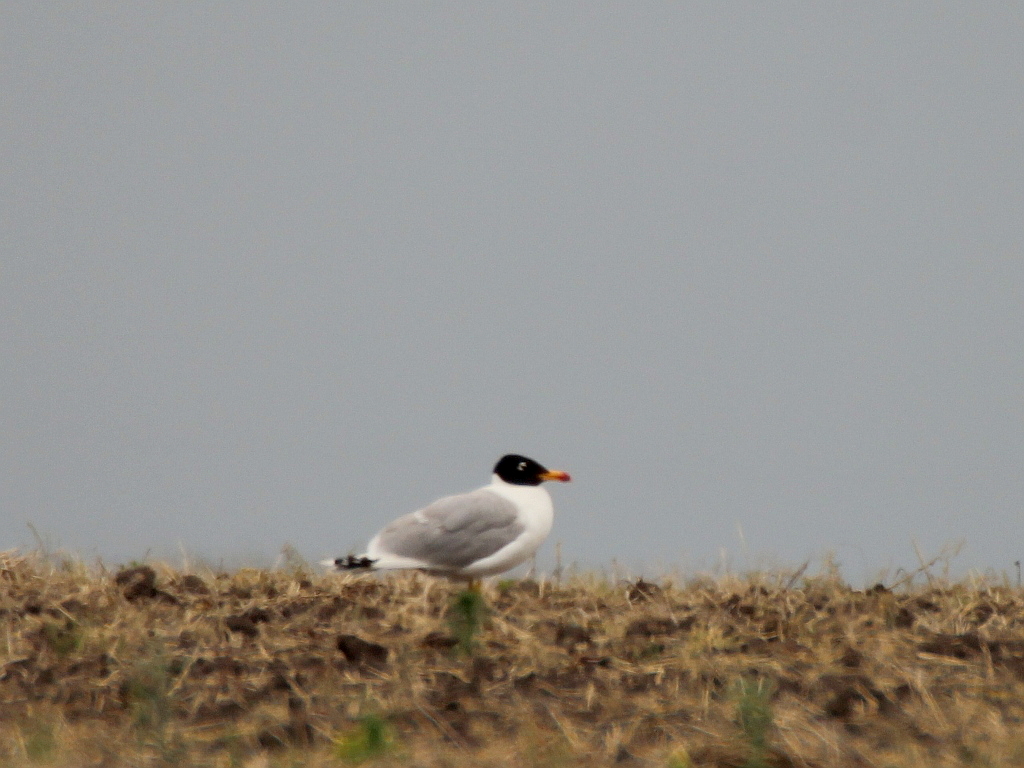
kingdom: Animalia
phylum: Chordata
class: Aves
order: Charadriiformes
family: Laridae
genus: Ichthyaetus
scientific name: Ichthyaetus ichthyaetus
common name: Pallas's gull
